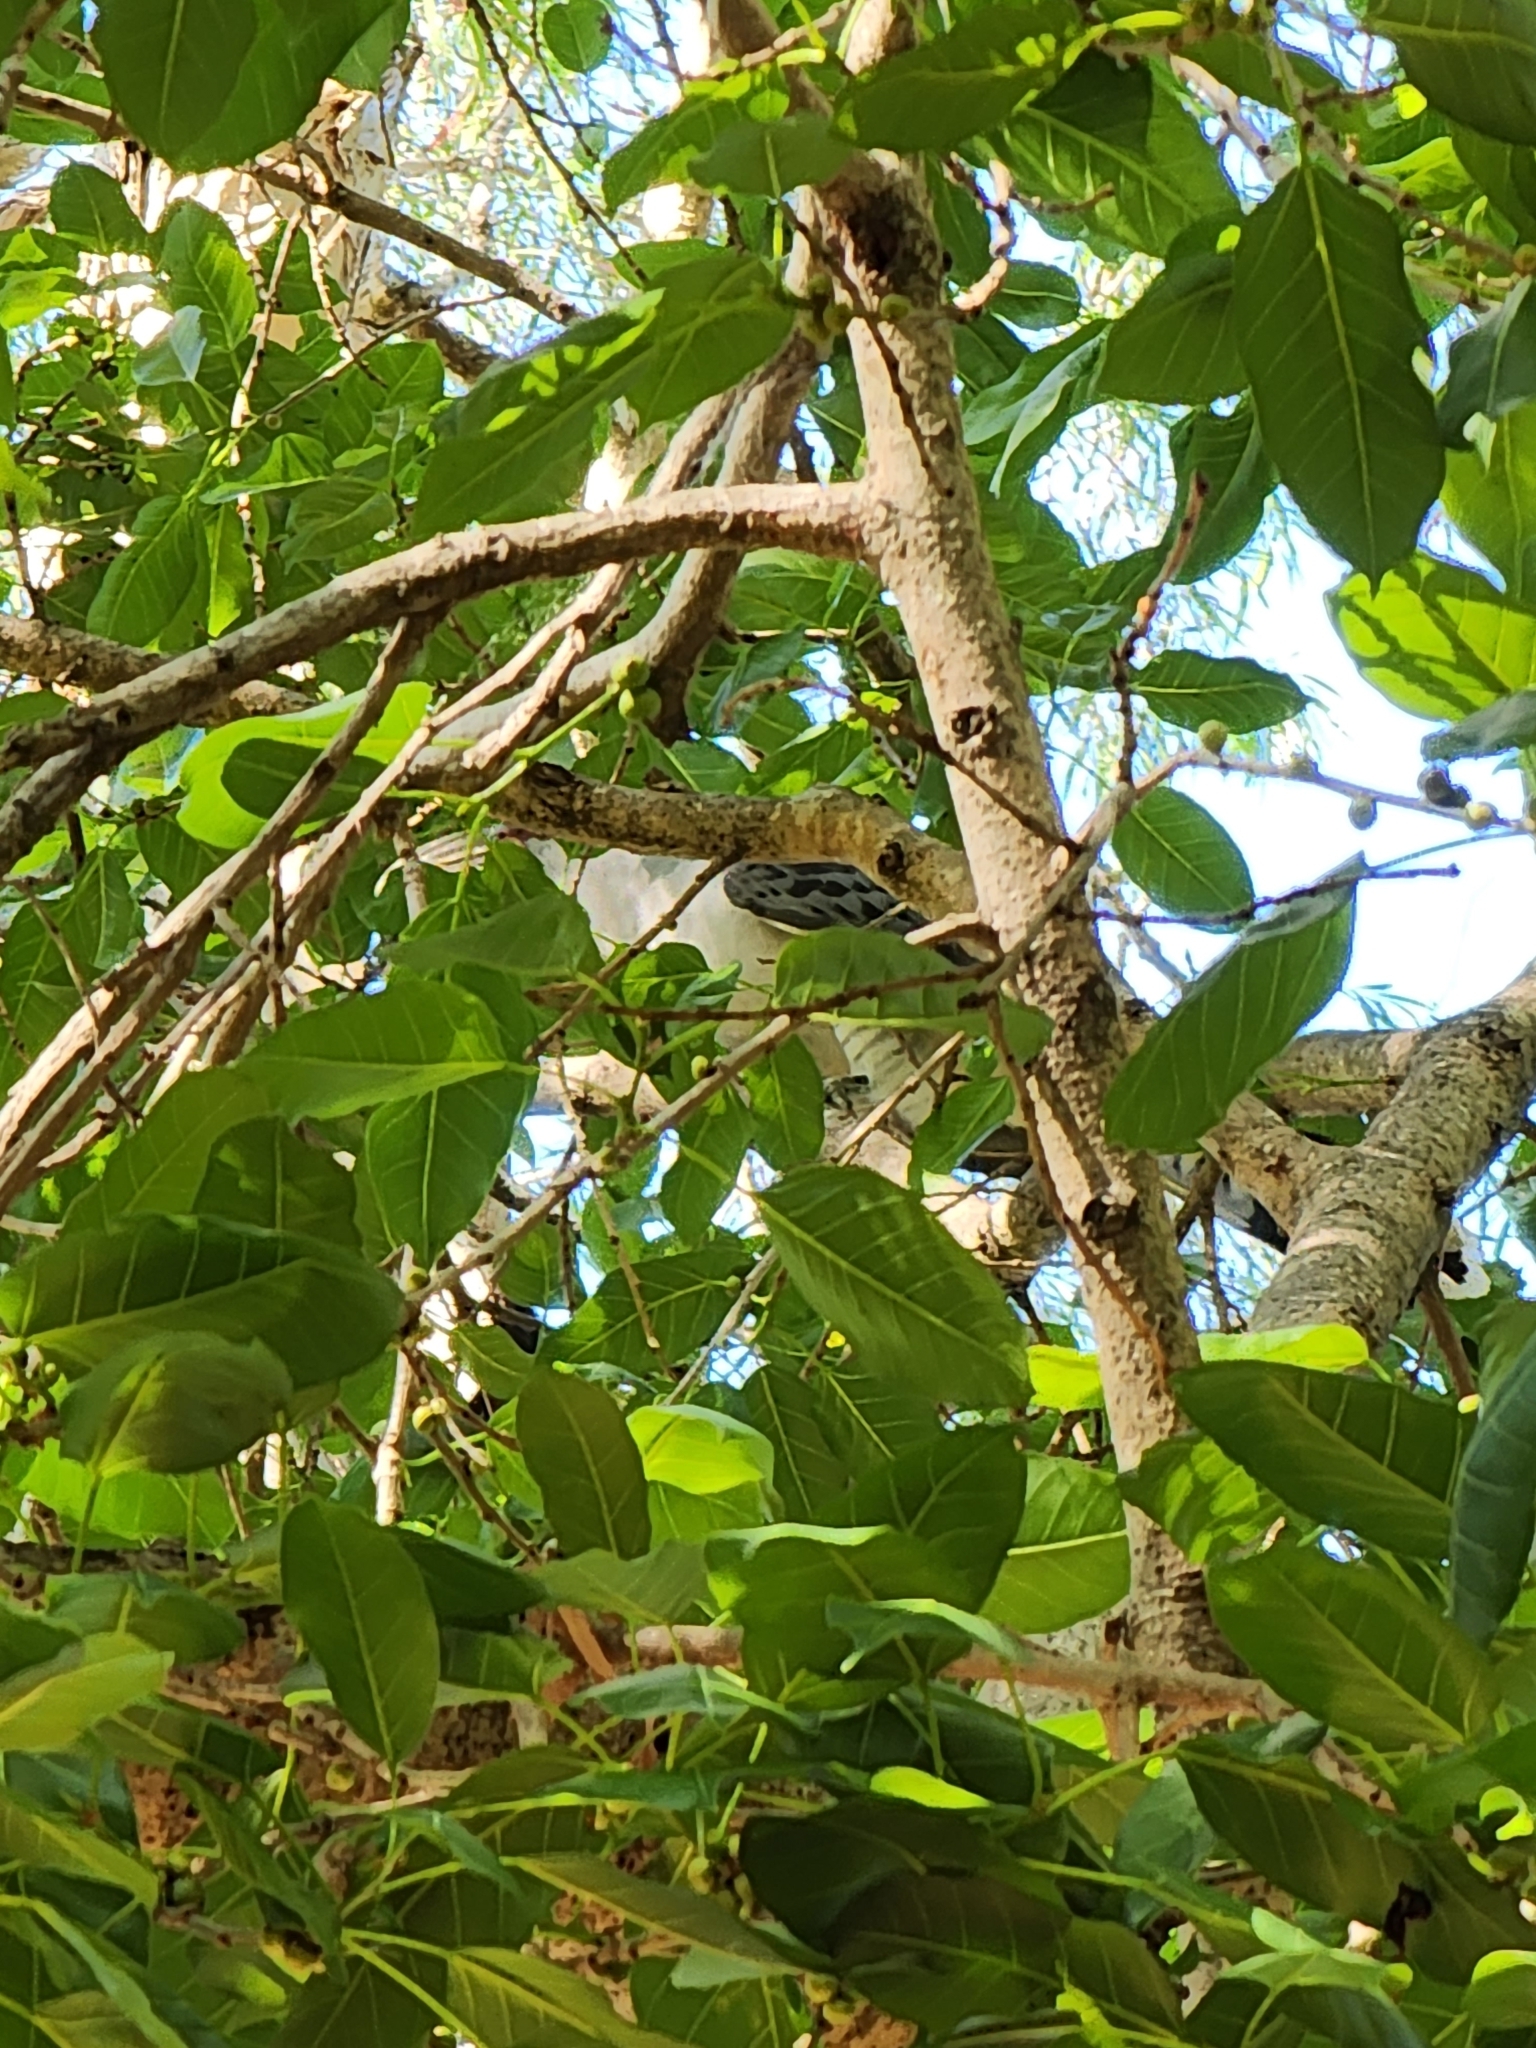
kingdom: Animalia
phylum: Chordata
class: Aves
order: Cuculiformes
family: Cuculidae
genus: Scythrops
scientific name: Scythrops novaehollandiae
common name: Channel-billed cuckoo
